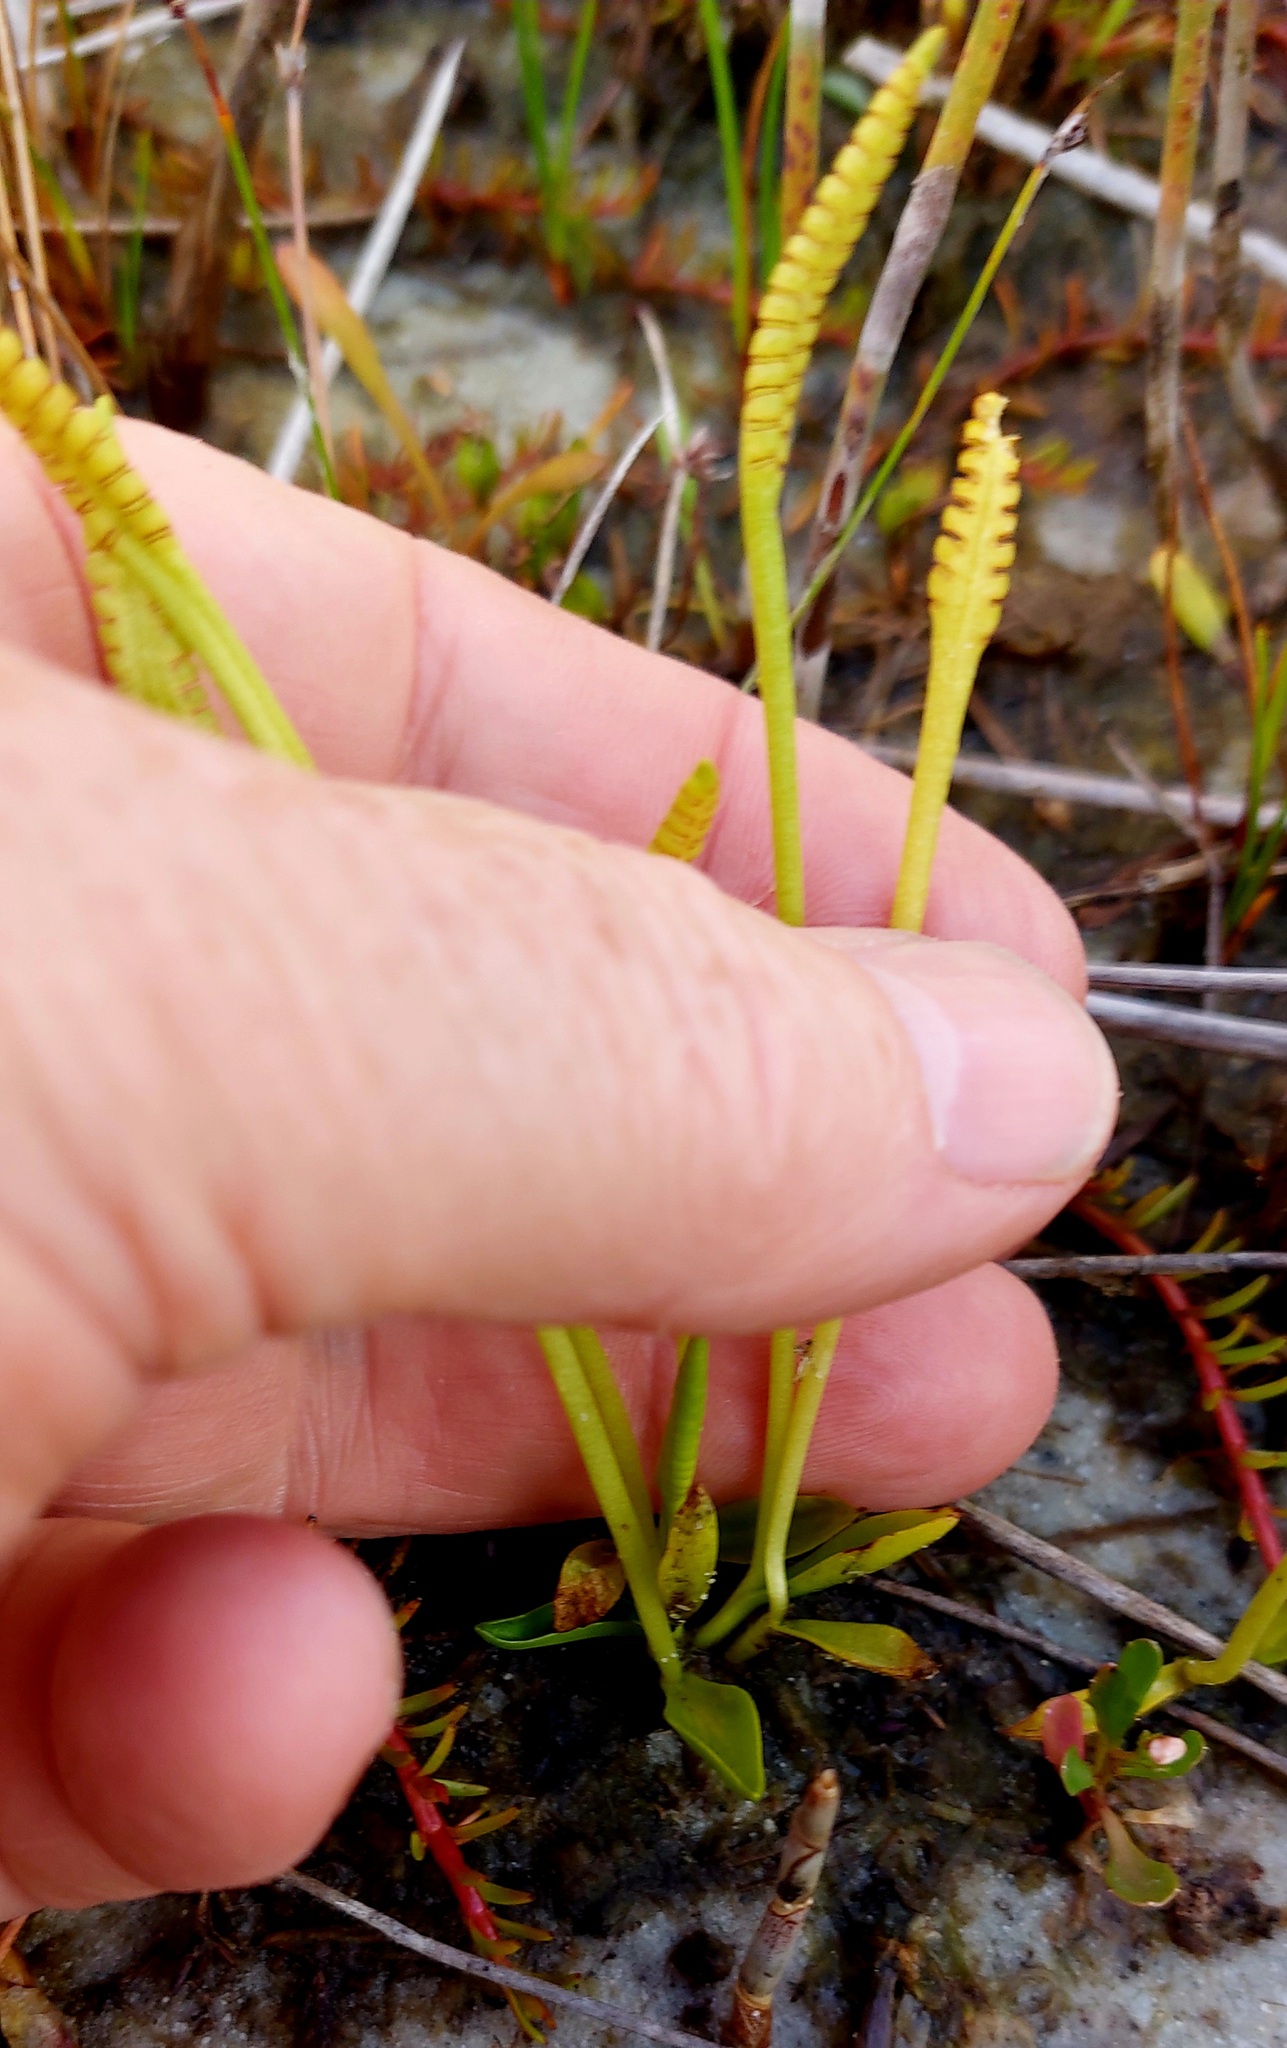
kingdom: Plantae
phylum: Tracheophyta
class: Polypodiopsida
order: Ophioglossales
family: Ophioglossaceae
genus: Ophioglossum
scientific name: Ophioglossum petiolatum
